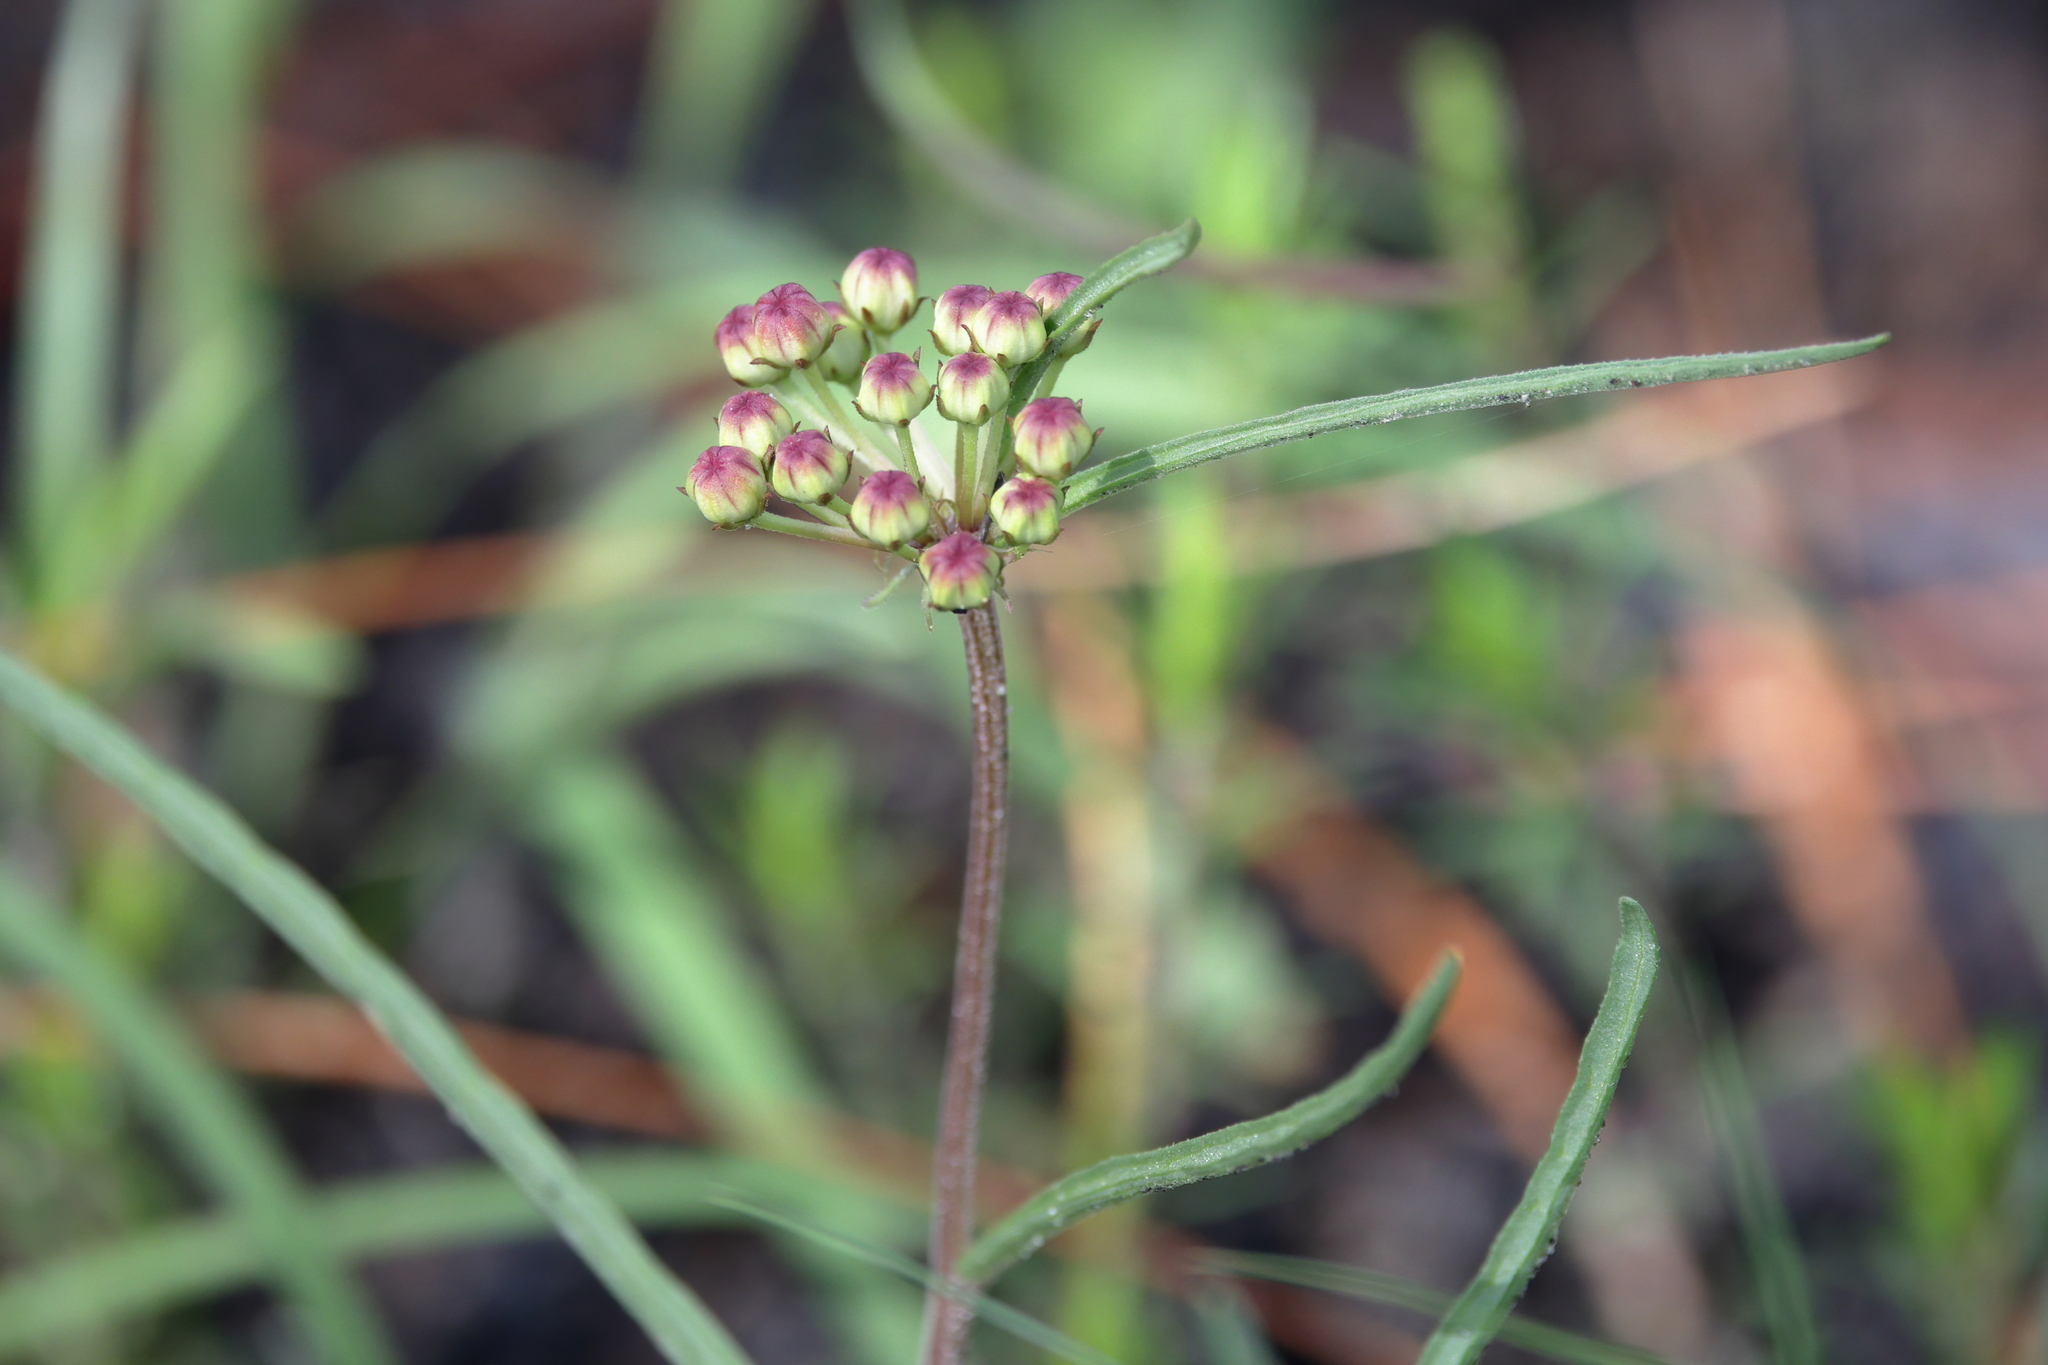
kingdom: Plantae
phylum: Tracheophyta
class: Magnoliopsida
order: Gentianales
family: Apocynaceae
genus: Asclepias
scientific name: Asclepias michauxii
